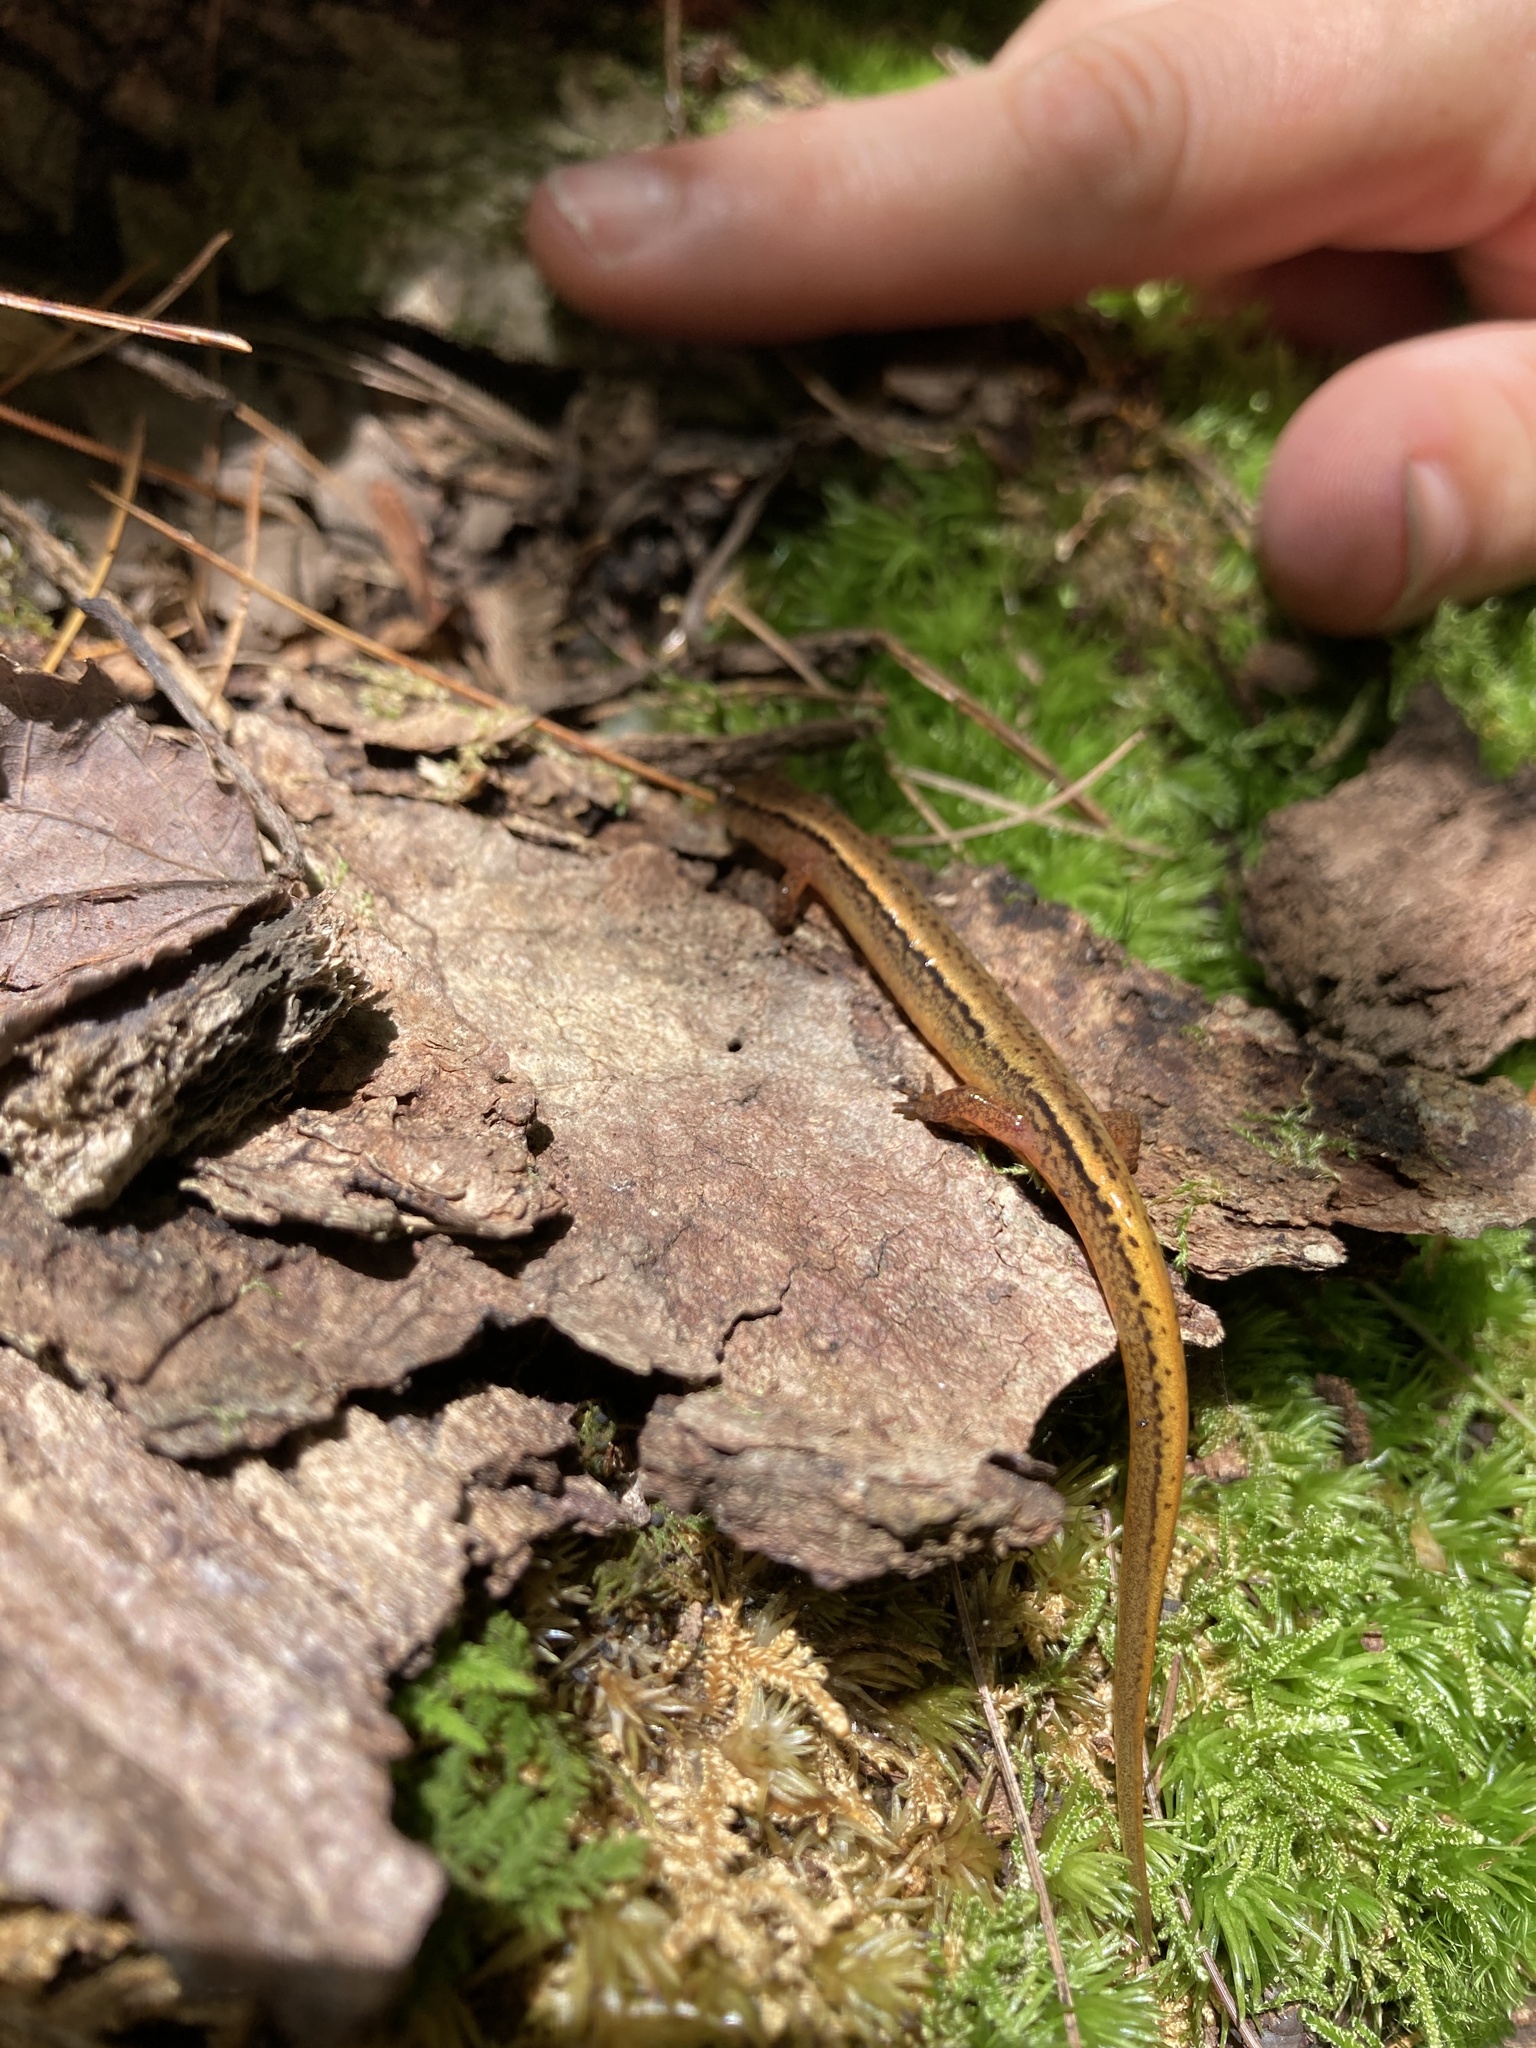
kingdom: Animalia
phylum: Chordata
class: Amphibia
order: Caudata
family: Plethodontidae
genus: Eurycea
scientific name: Eurycea bislineata
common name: Northern two-lined salamander
